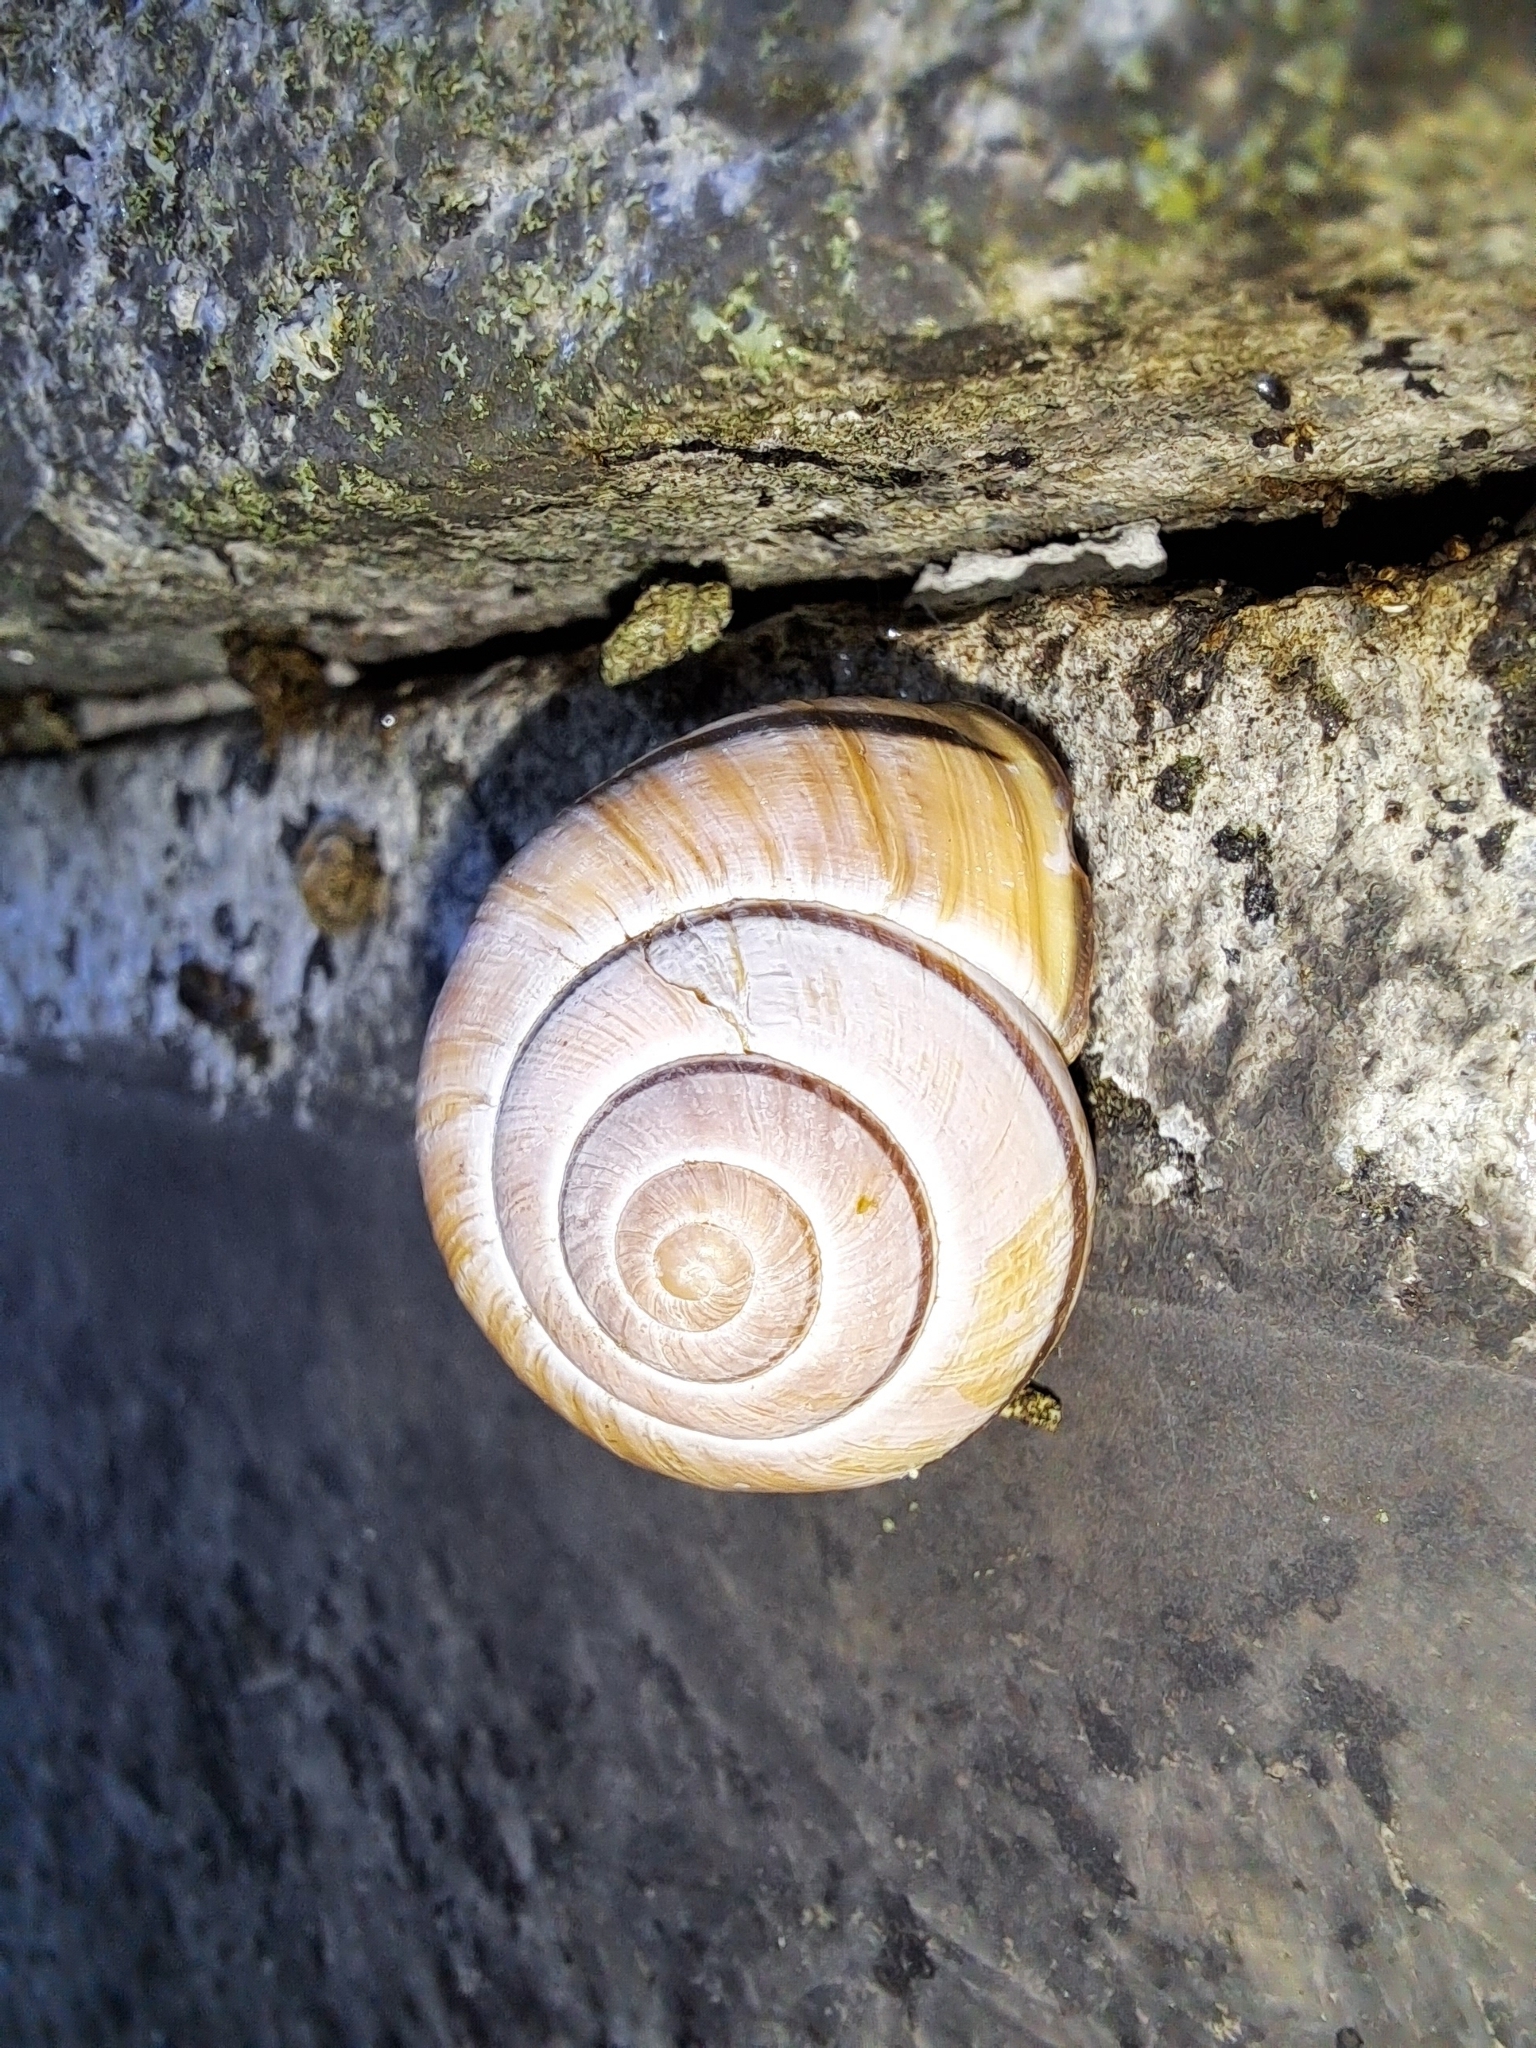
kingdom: Animalia
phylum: Mollusca
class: Gastropoda
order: Stylommatophora
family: Helicidae
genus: Cepaea
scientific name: Cepaea nemoralis
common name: Grovesnail
